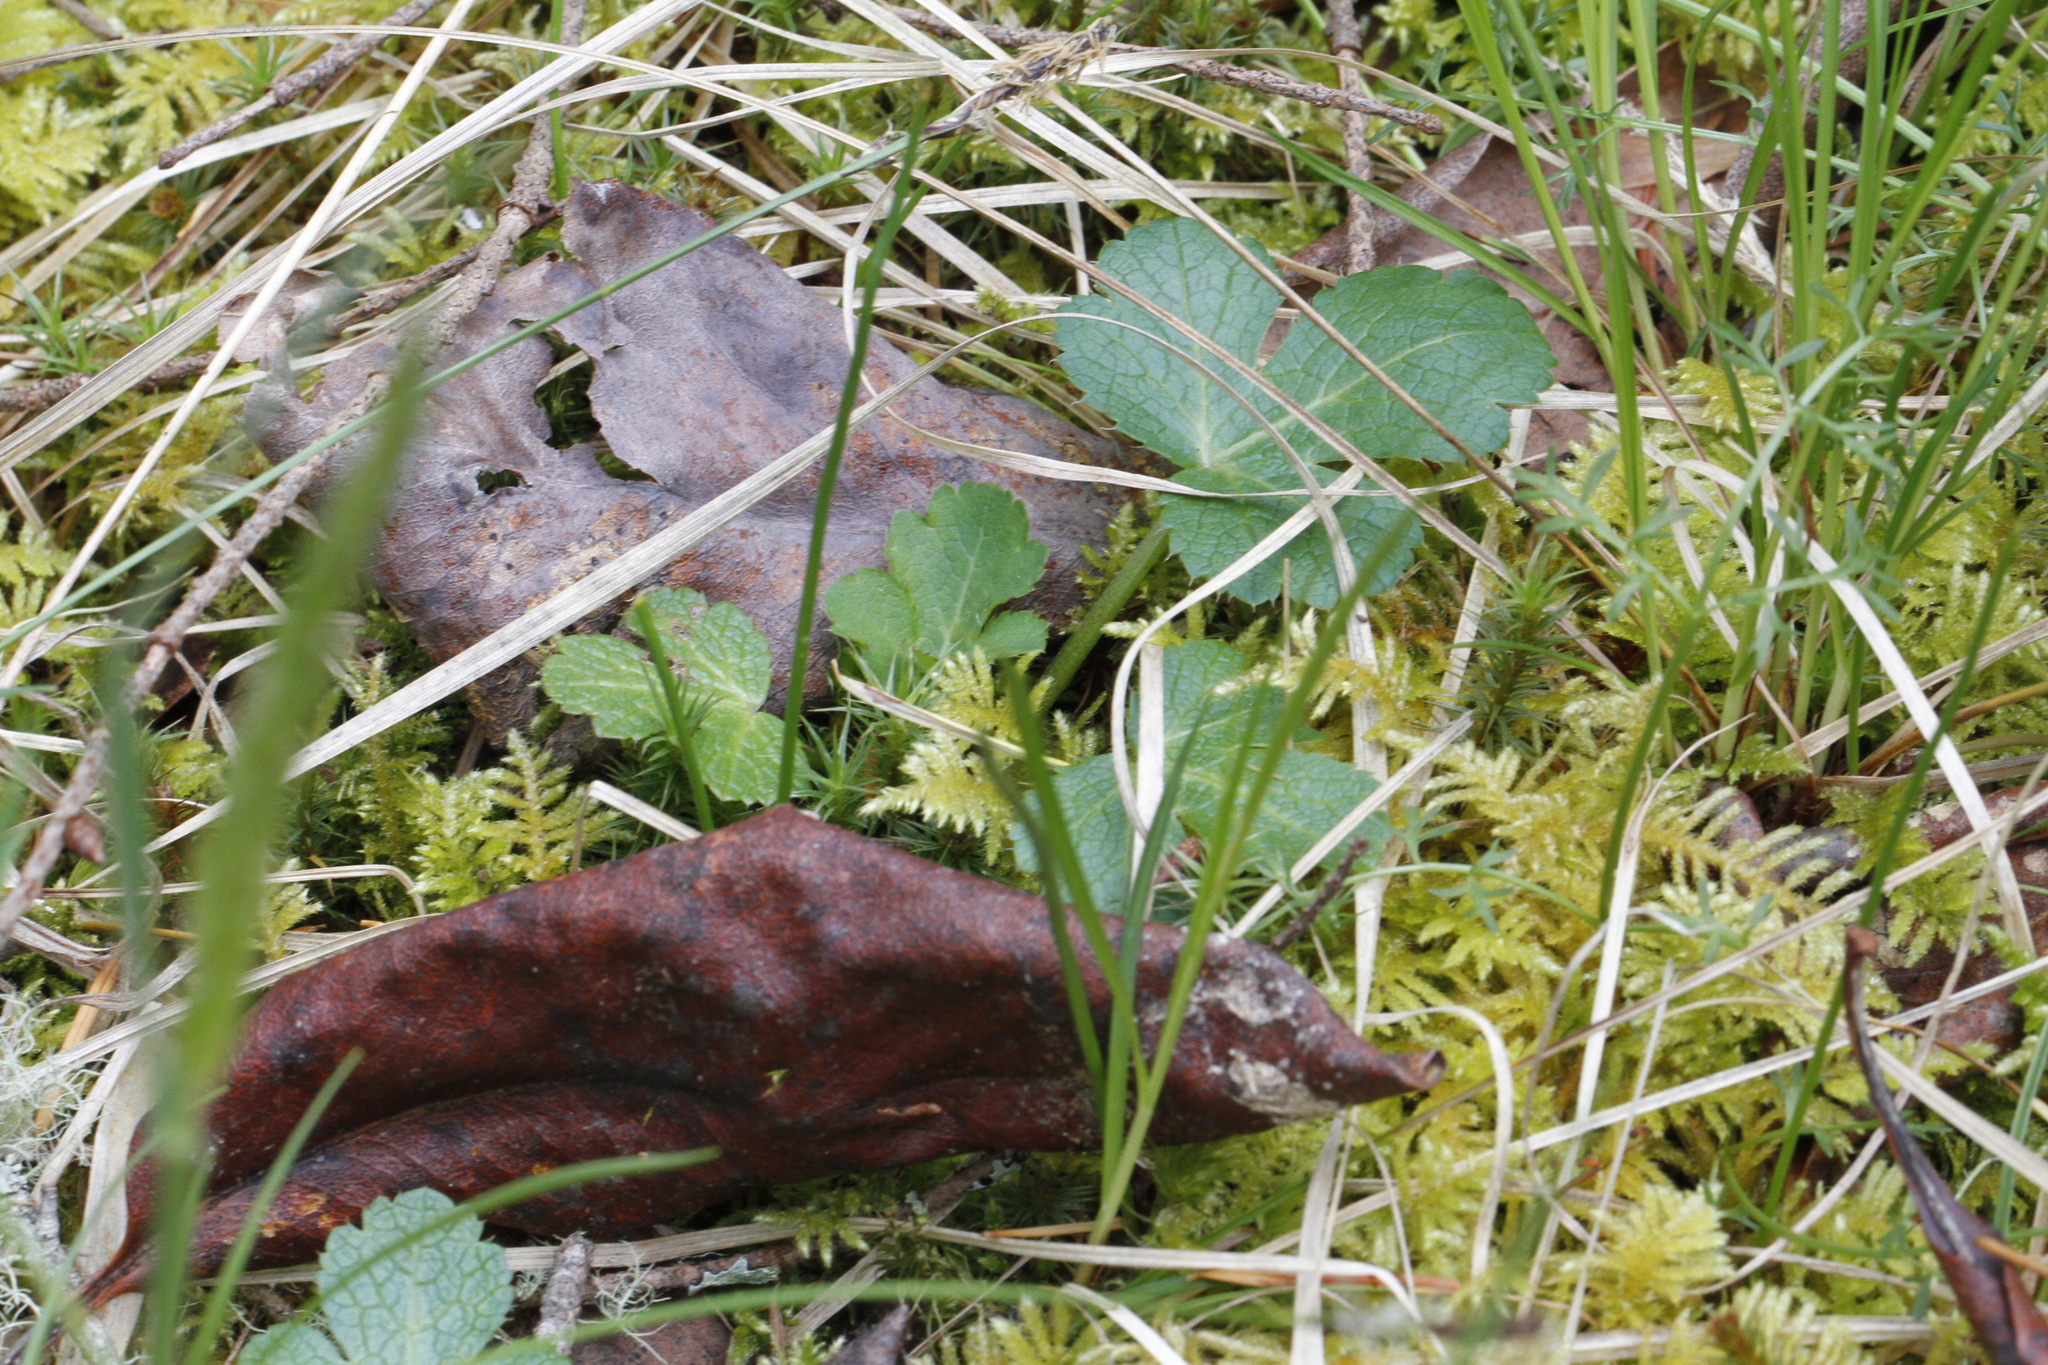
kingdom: Plantae
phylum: Tracheophyta
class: Magnoliopsida
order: Apiales
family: Apiaceae
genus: Sanicula
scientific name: Sanicula crassicaulis
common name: Western snakeroot
